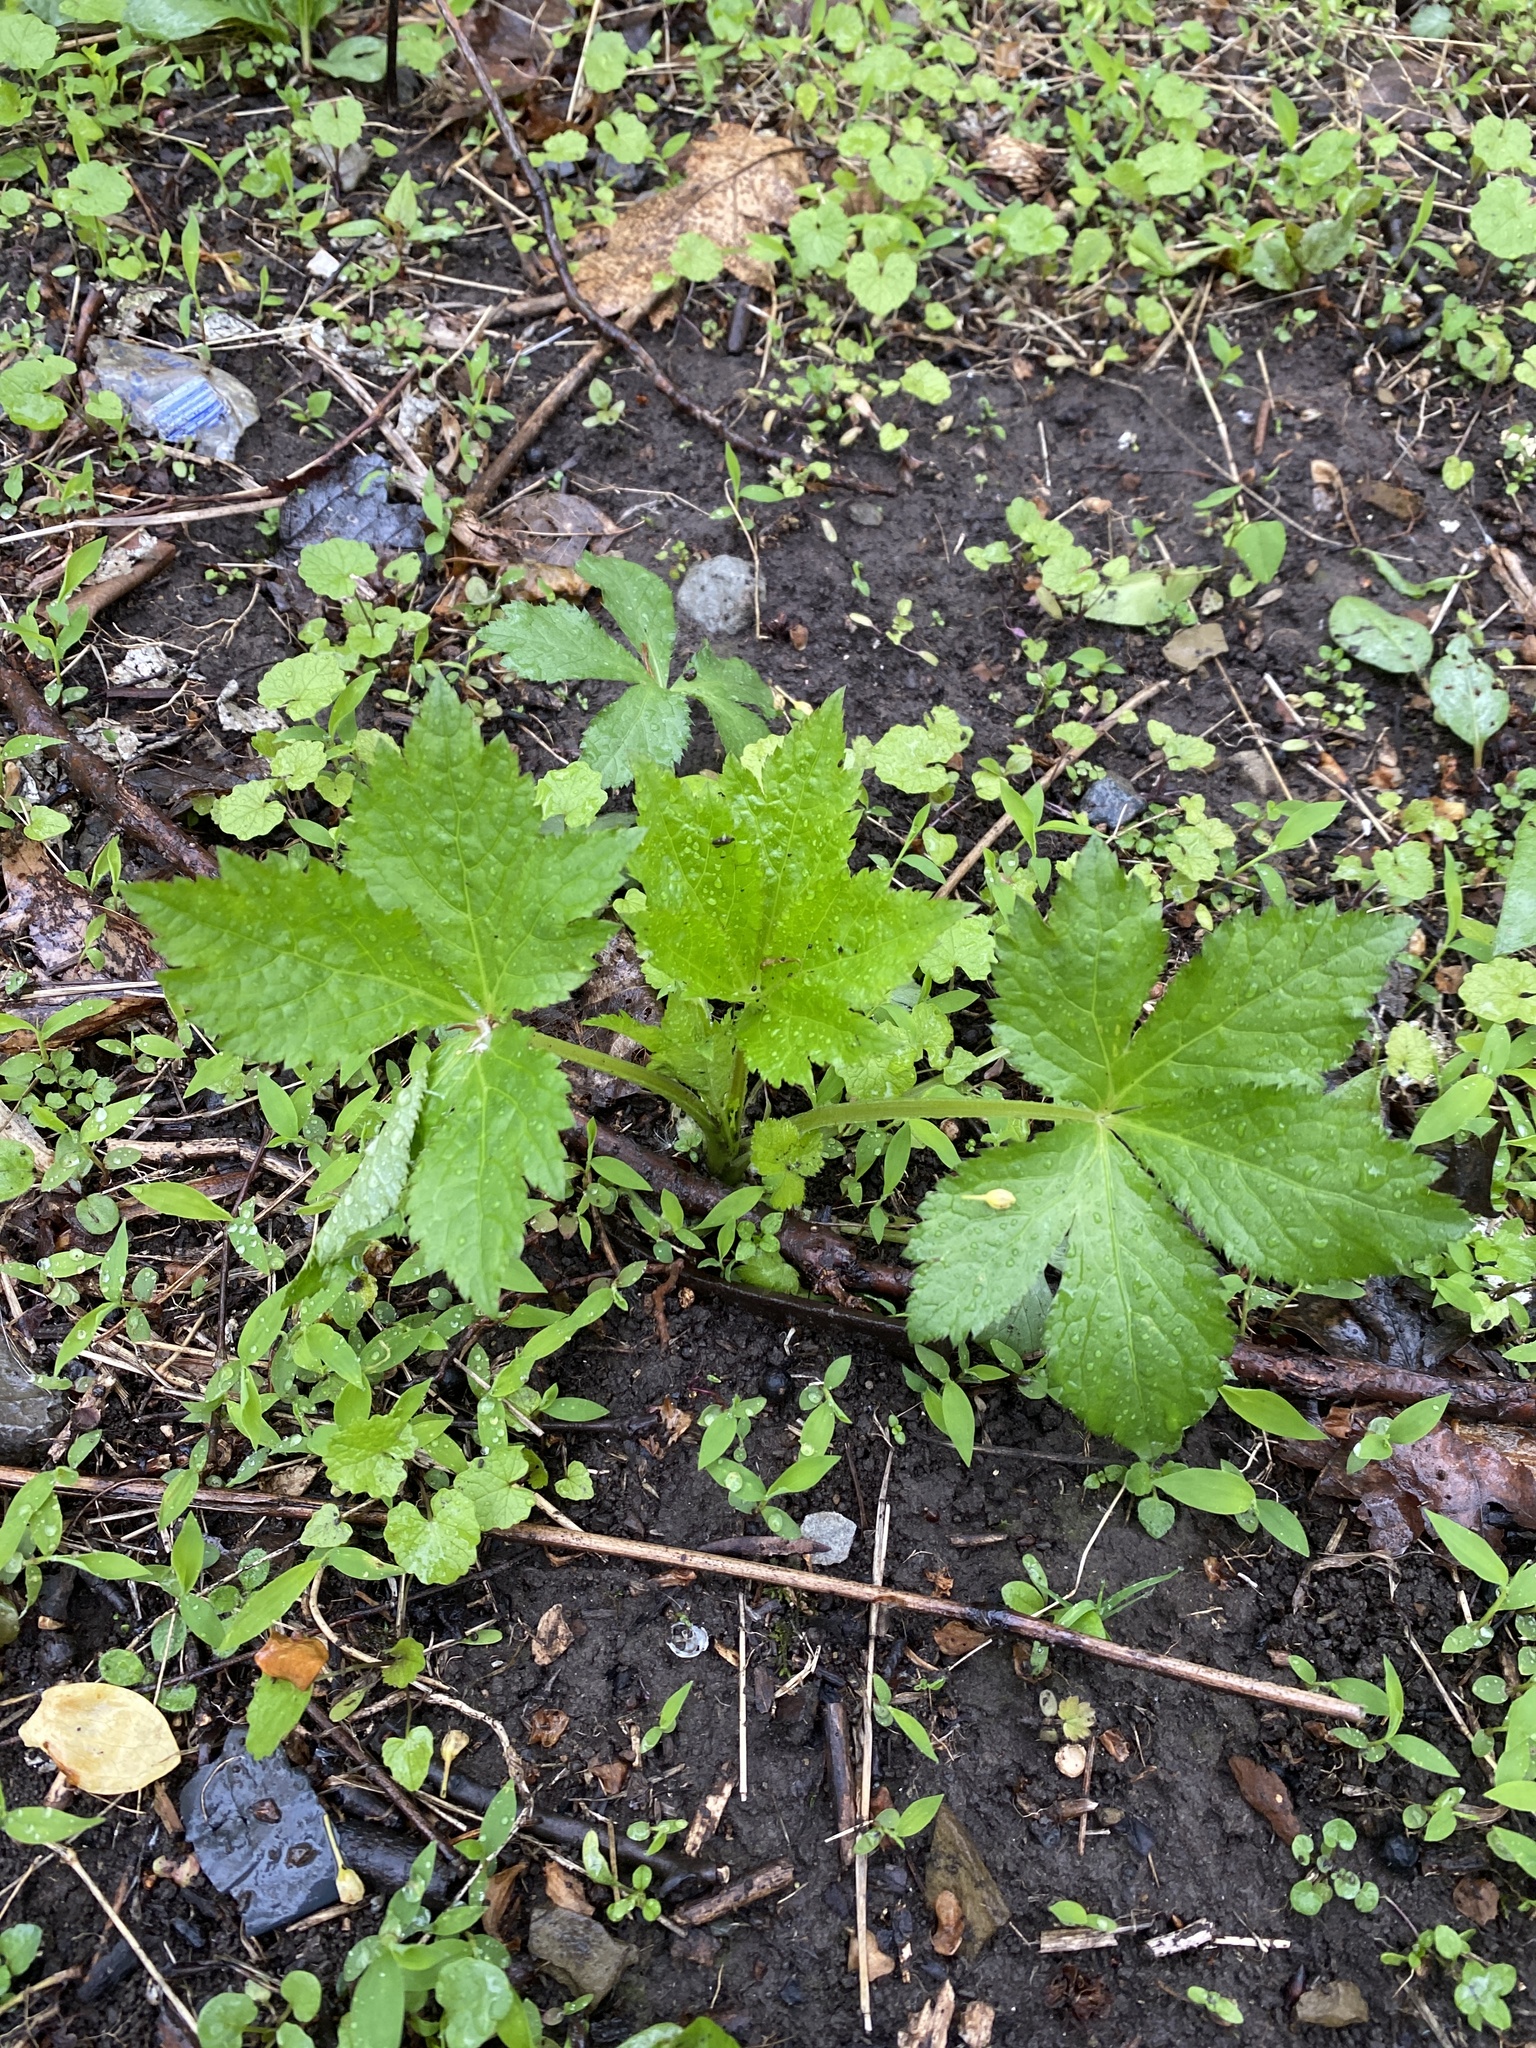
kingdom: Plantae
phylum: Tracheophyta
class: Magnoliopsida
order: Apiales
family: Apiaceae
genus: Cryptotaenia
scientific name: Cryptotaenia canadensis
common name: Honewort
